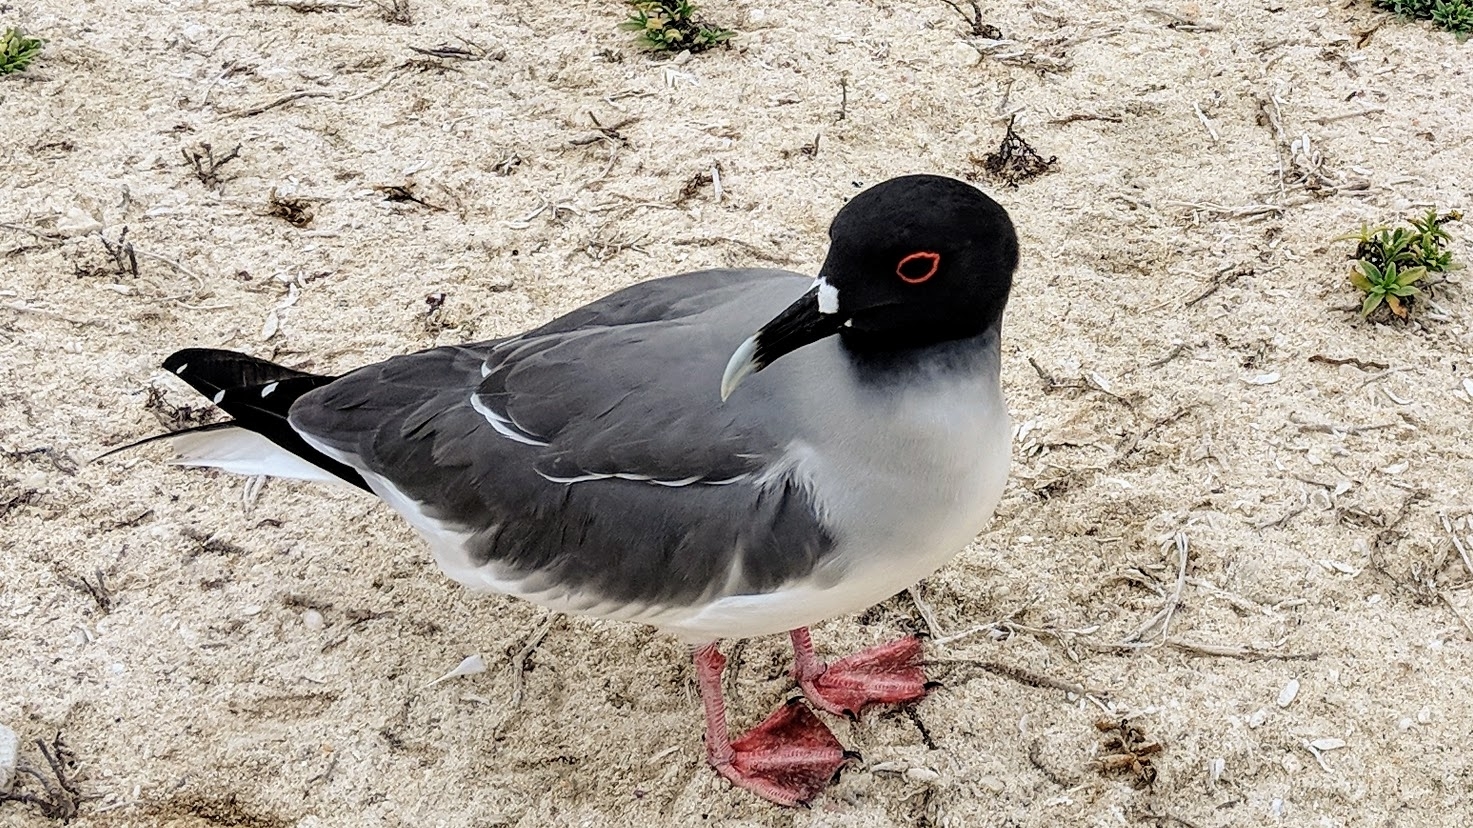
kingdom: Animalia
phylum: Chordata
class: Aves
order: Charadriiformes
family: Laridae
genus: Creagrus
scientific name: Creagrus furcatus
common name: Swallow-tailed gull
